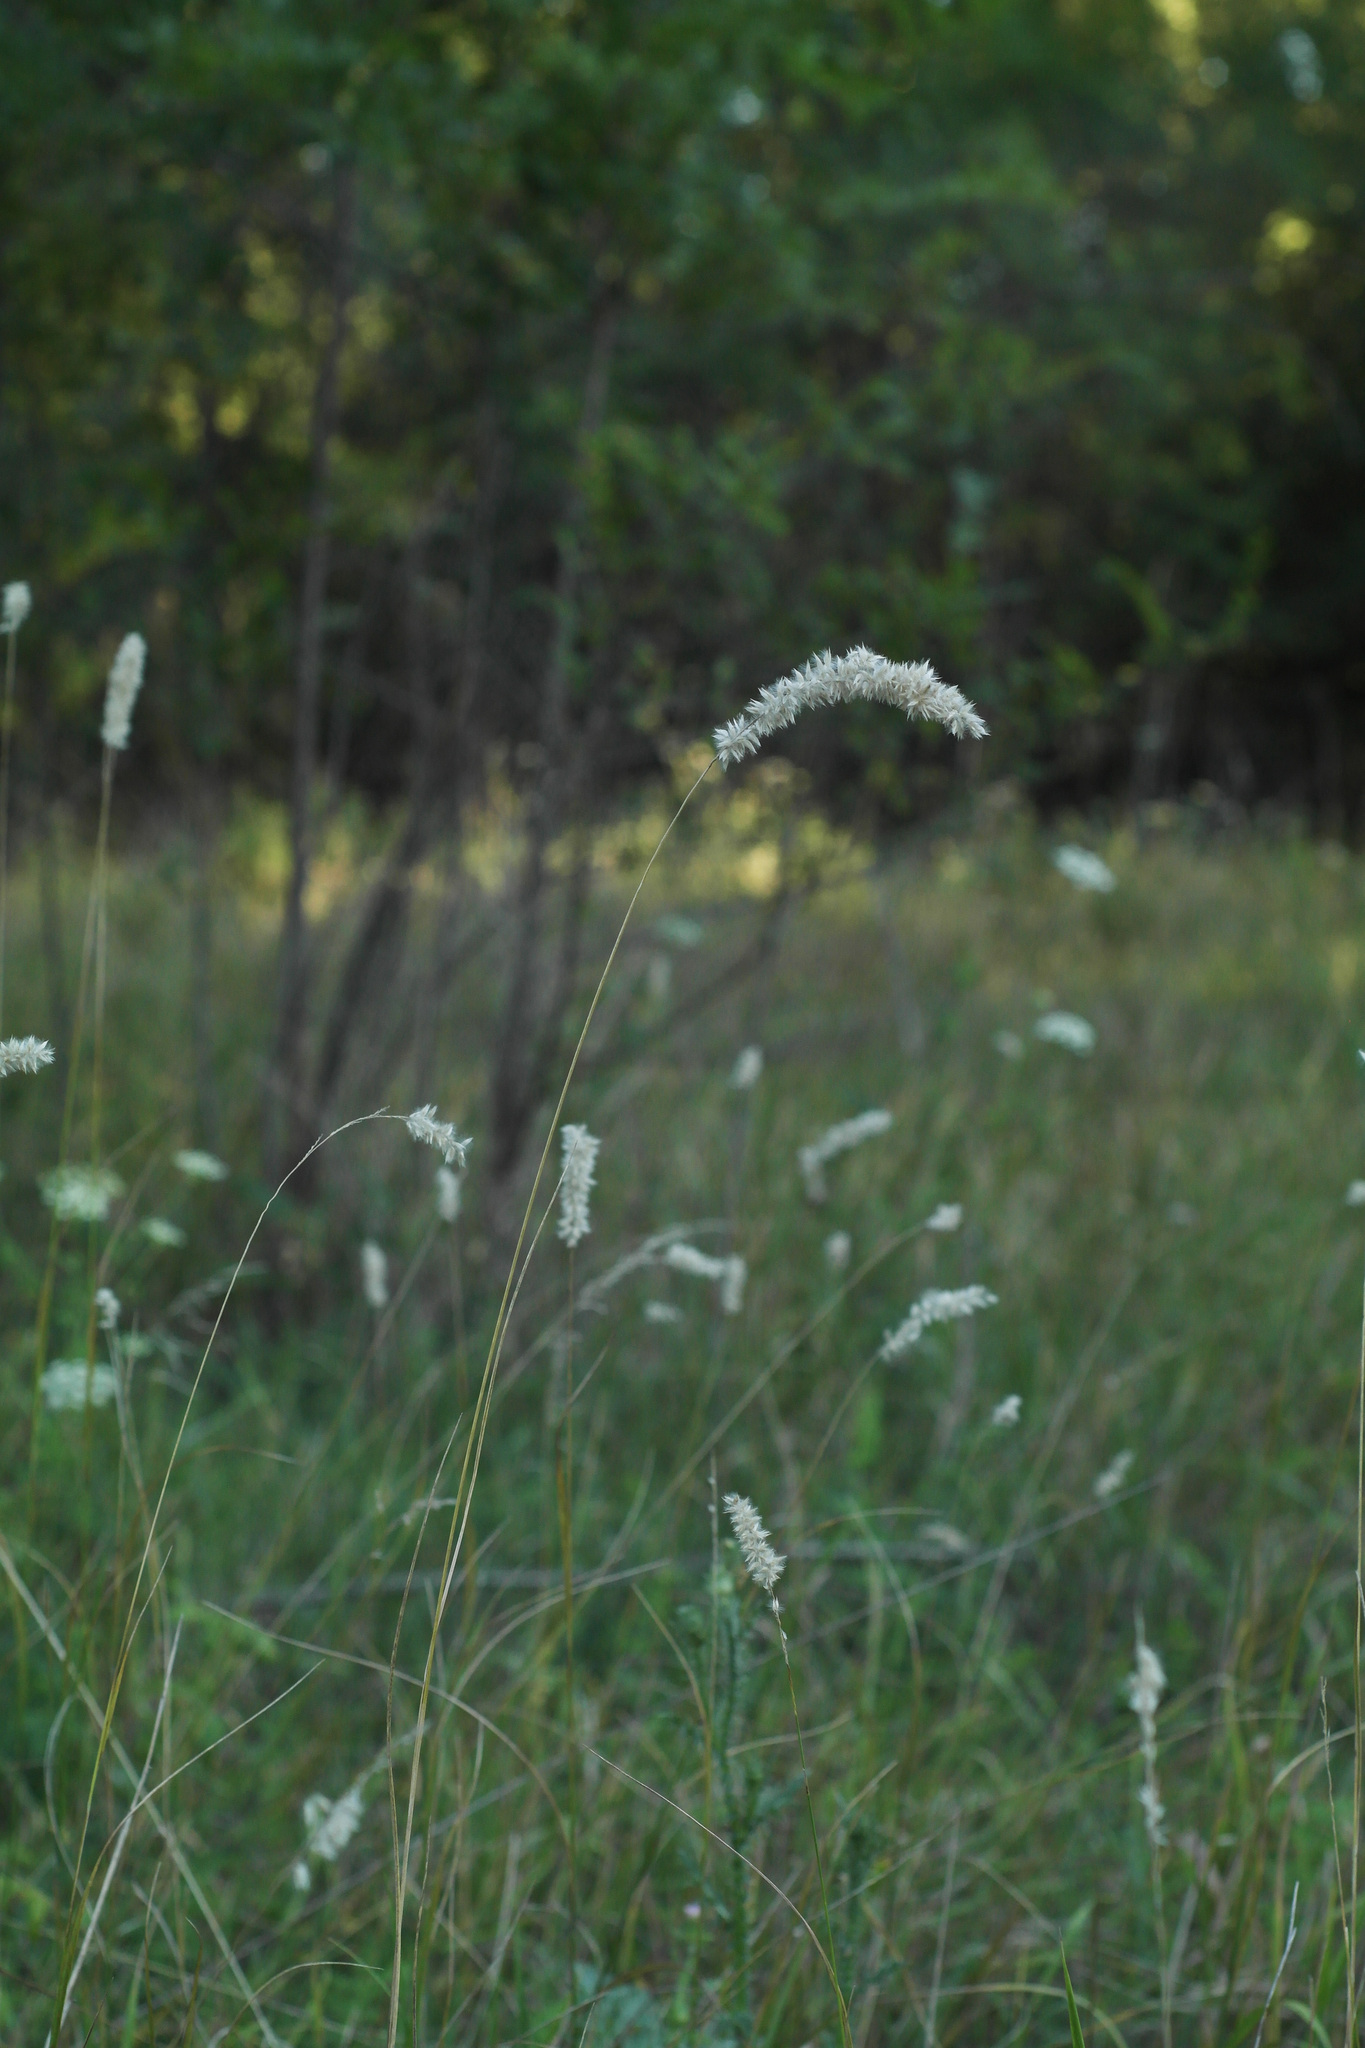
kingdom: Plantae
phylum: Tracheophyta
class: Liliopsida
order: Poales
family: Poaceae
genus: Melica
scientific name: Melica transsilvanica
